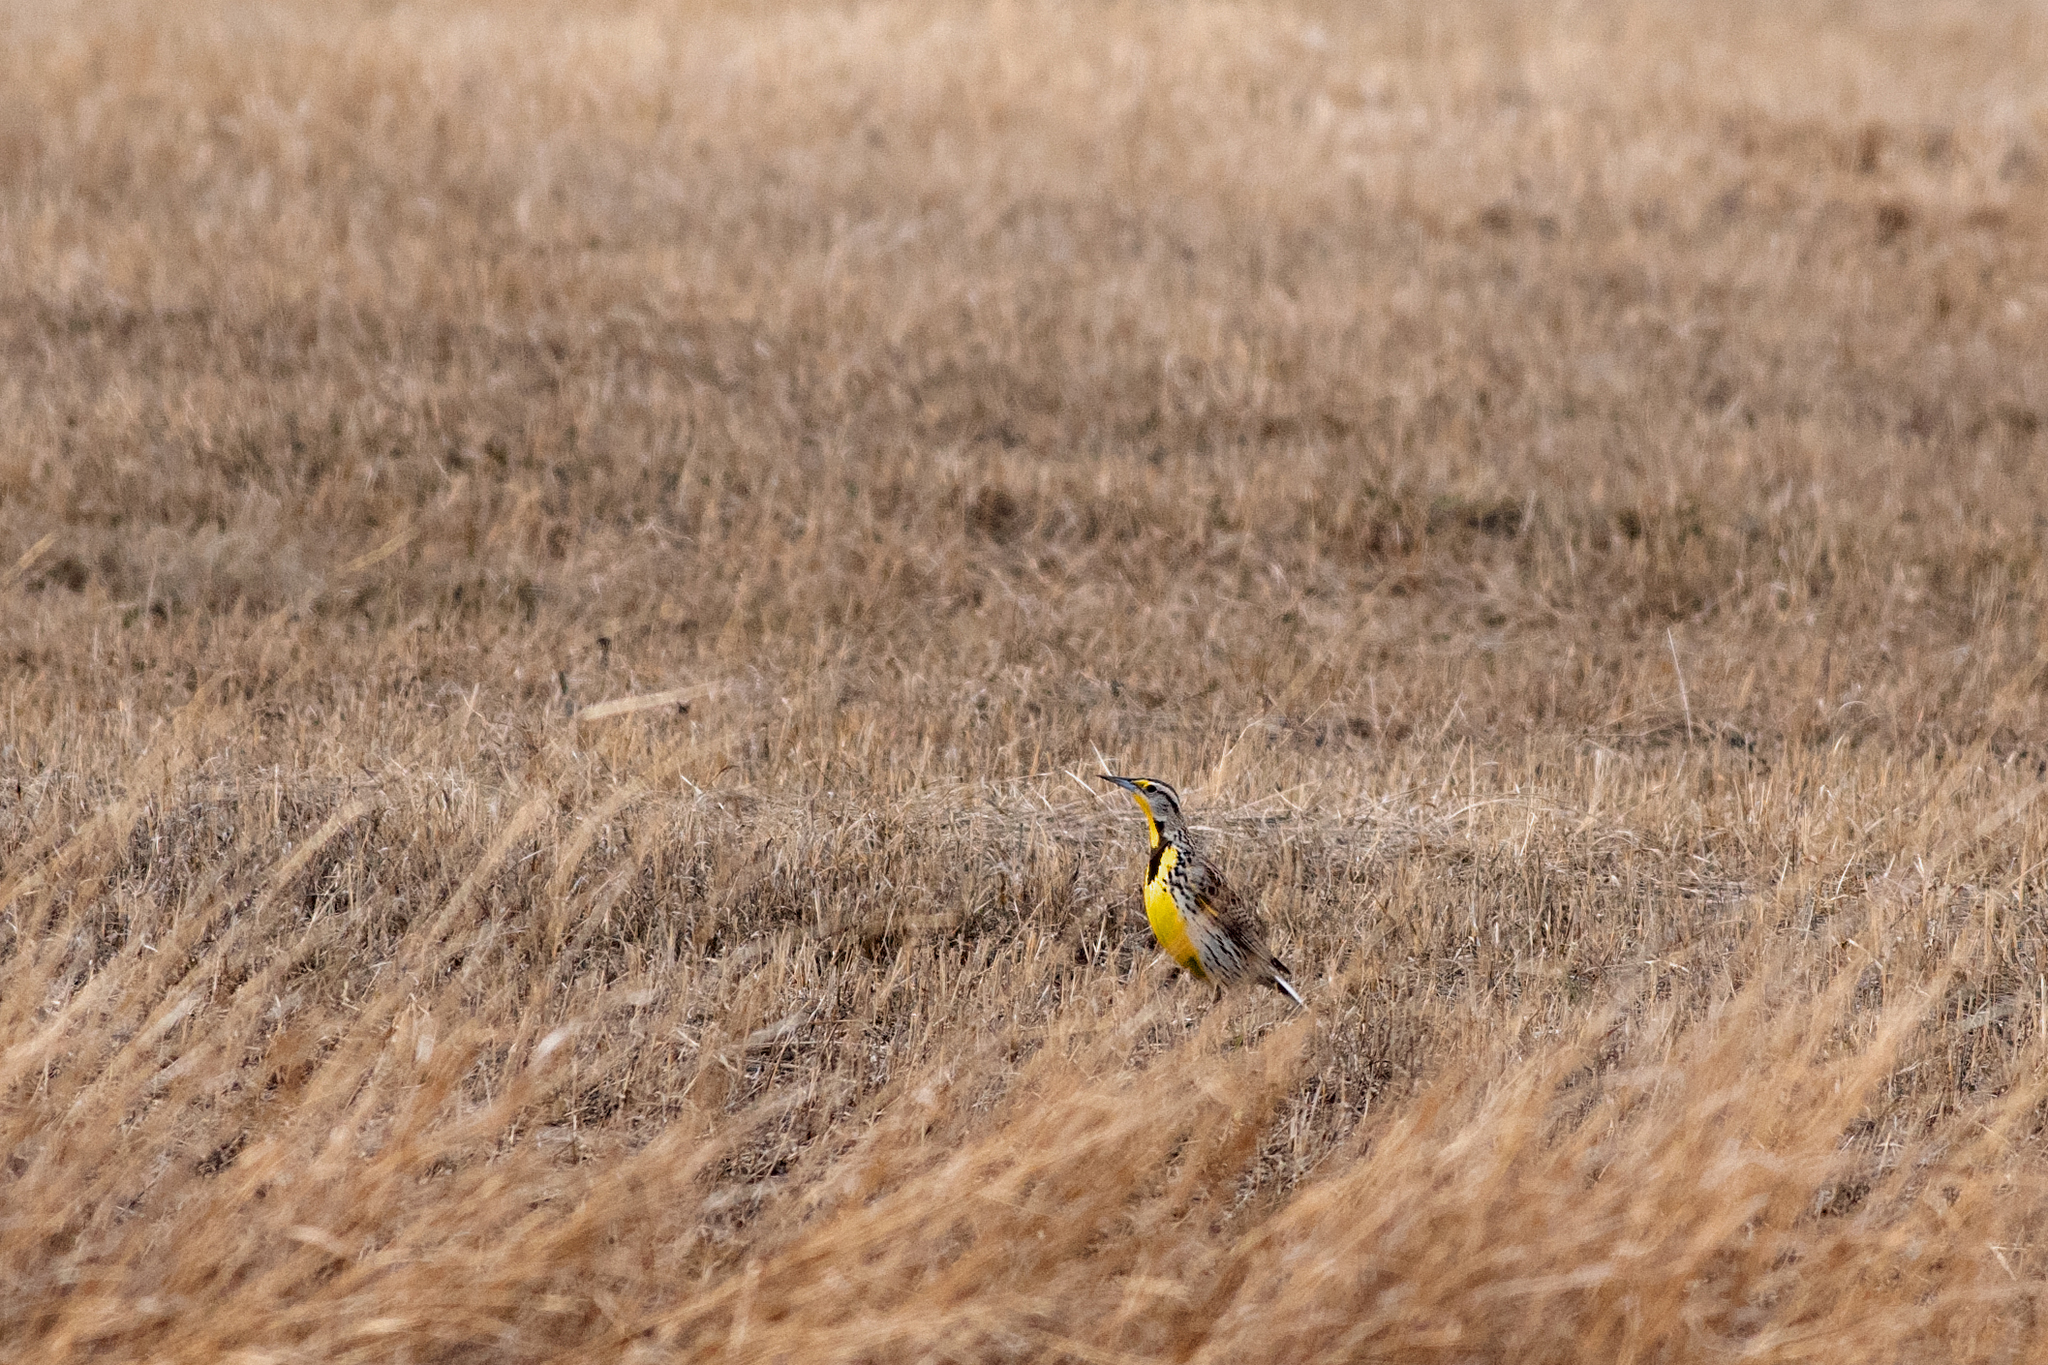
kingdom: Animalia
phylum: Chordata
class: Aves
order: Passeriformes
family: Icteridae
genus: Sturnella
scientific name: Sturnella neglecta
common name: Western meadowlark
